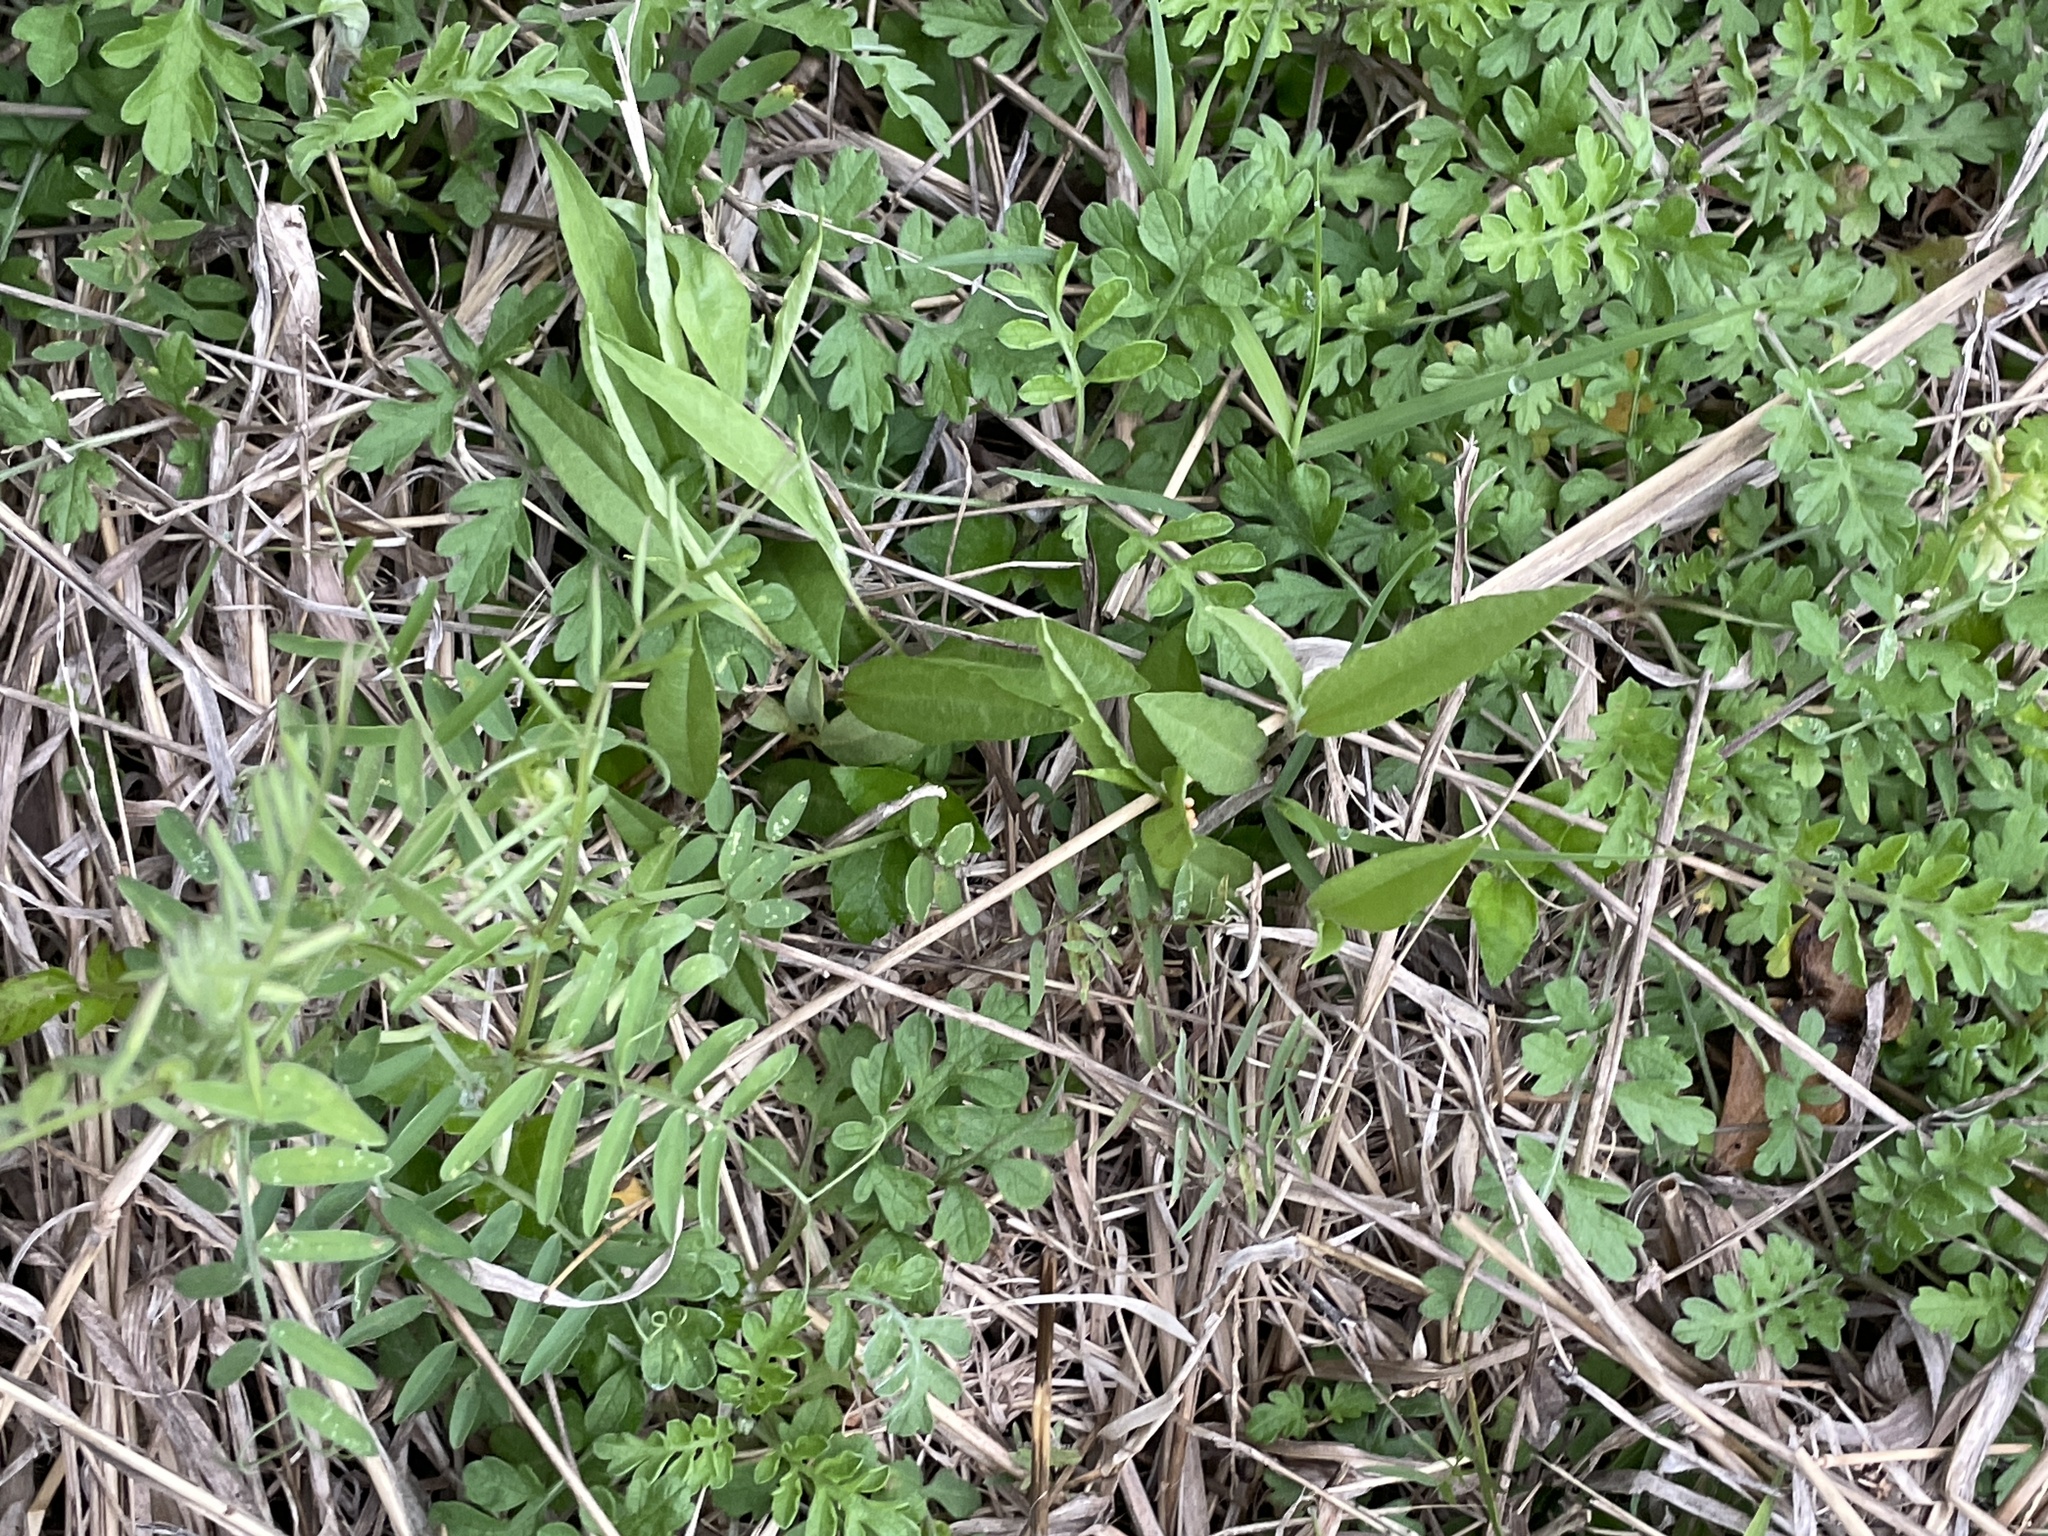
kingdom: Plantae
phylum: Tracheophyta
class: Magnoliopsida
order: Piperales
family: Aristolochiaceae
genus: Aristolochia
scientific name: Aristolochia erecta
